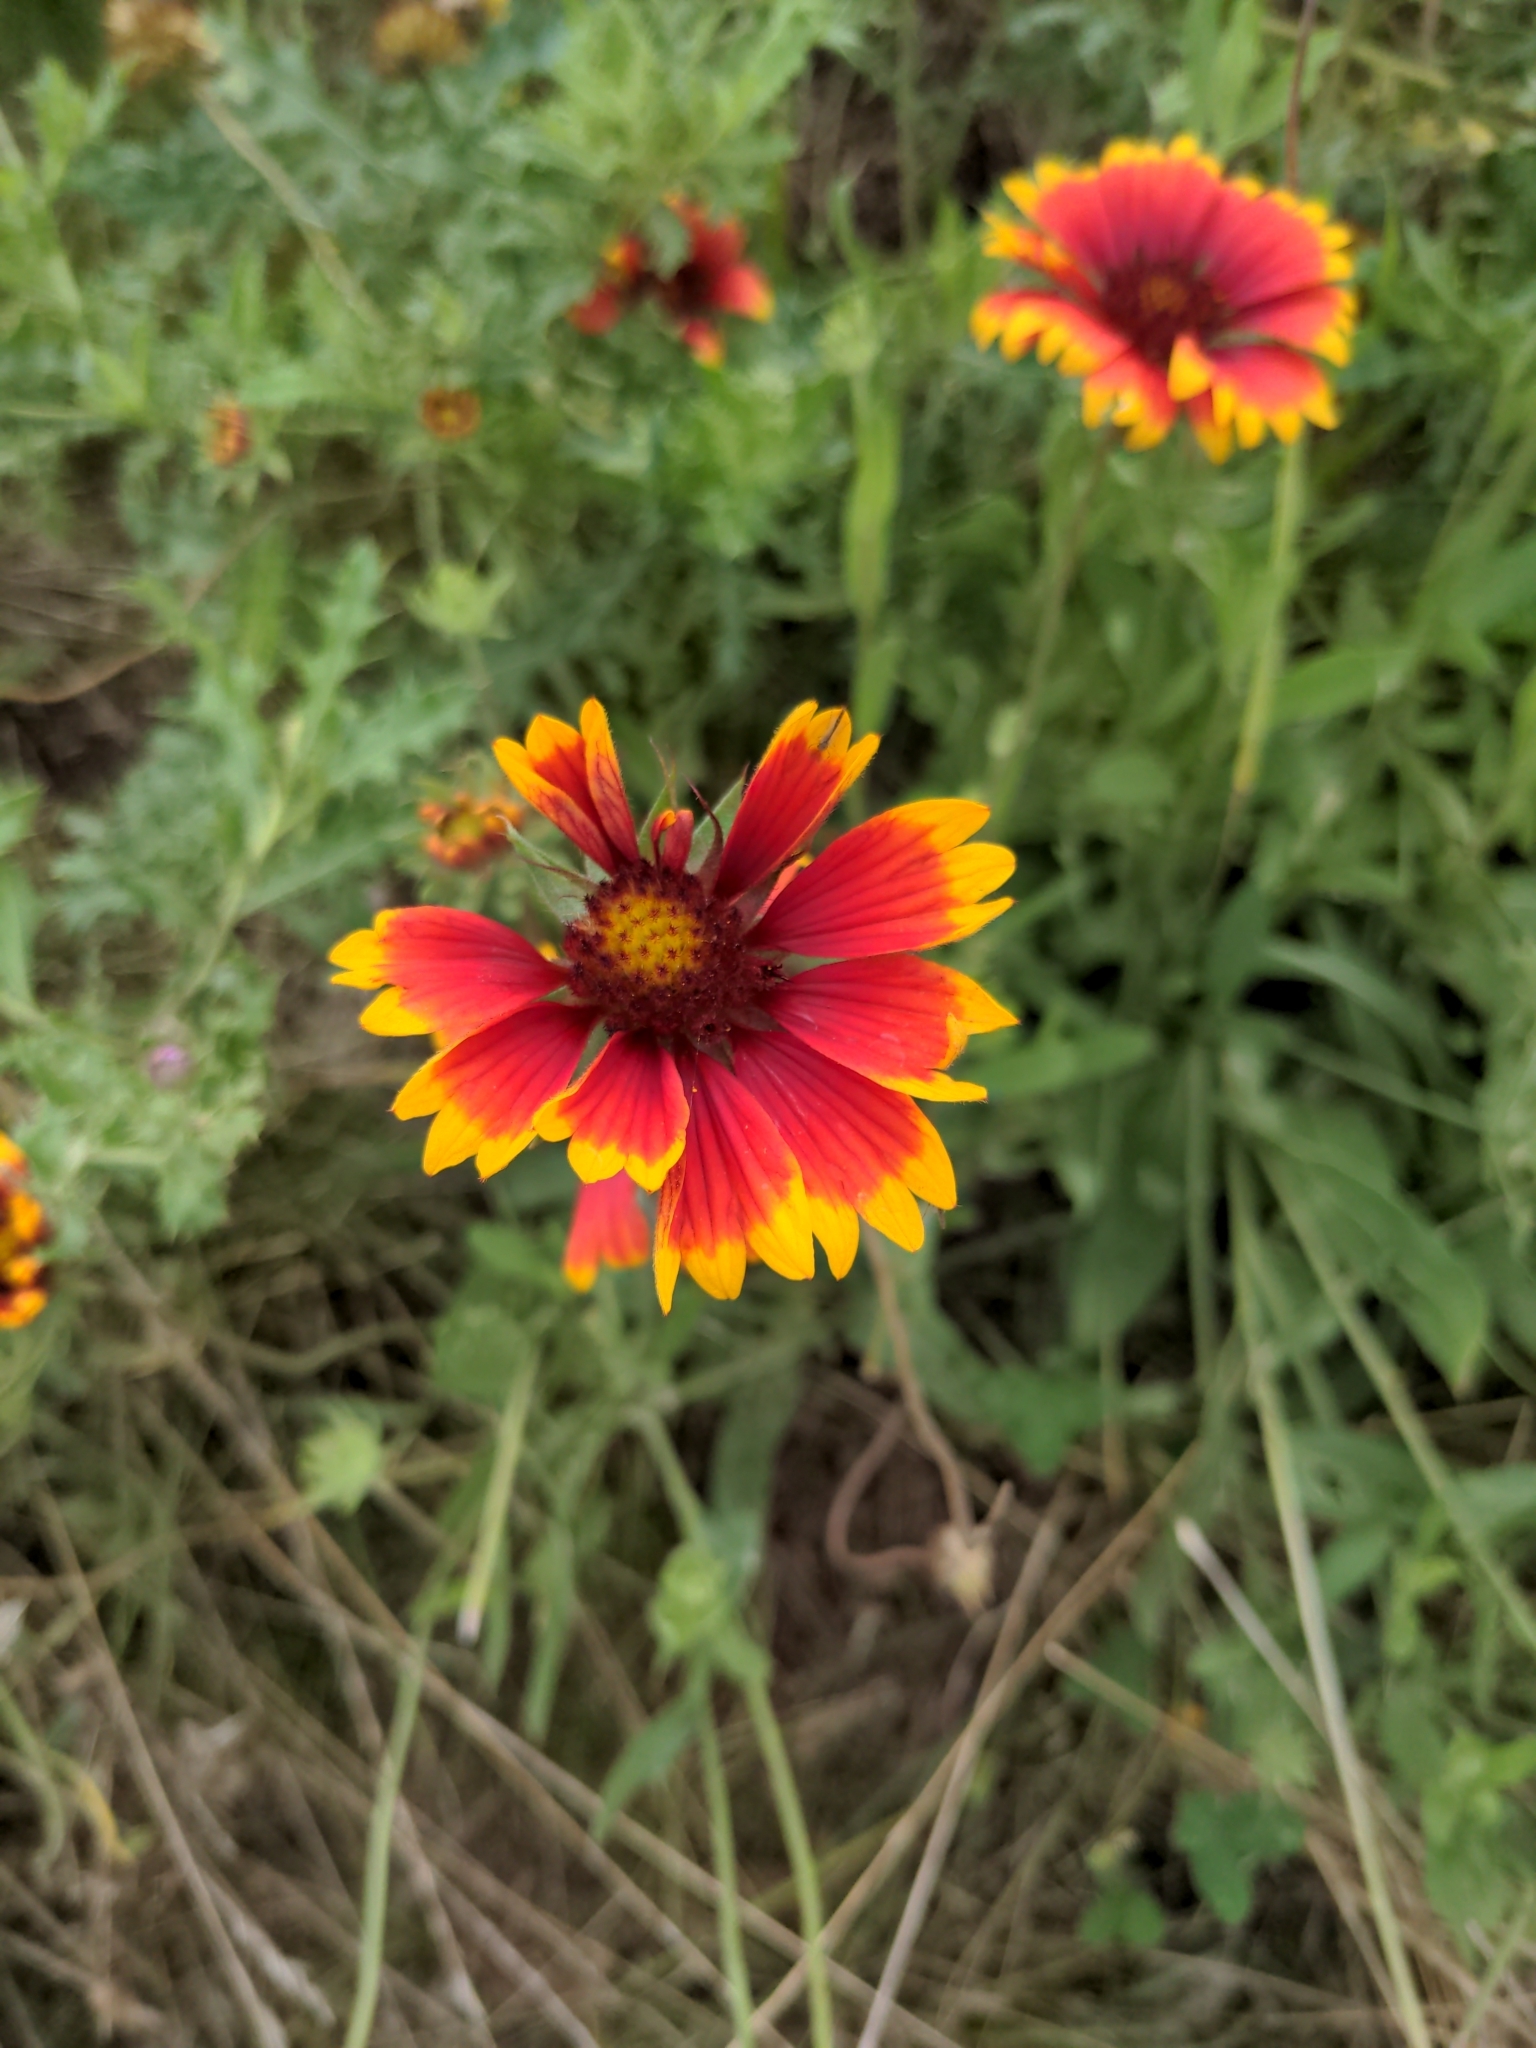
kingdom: Plantae
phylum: Tracheophyta
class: Magnoliopsida
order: Asterales
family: Asteraceae
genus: Gaillardia
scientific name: Gaillardia pulchella
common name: Firewheel
